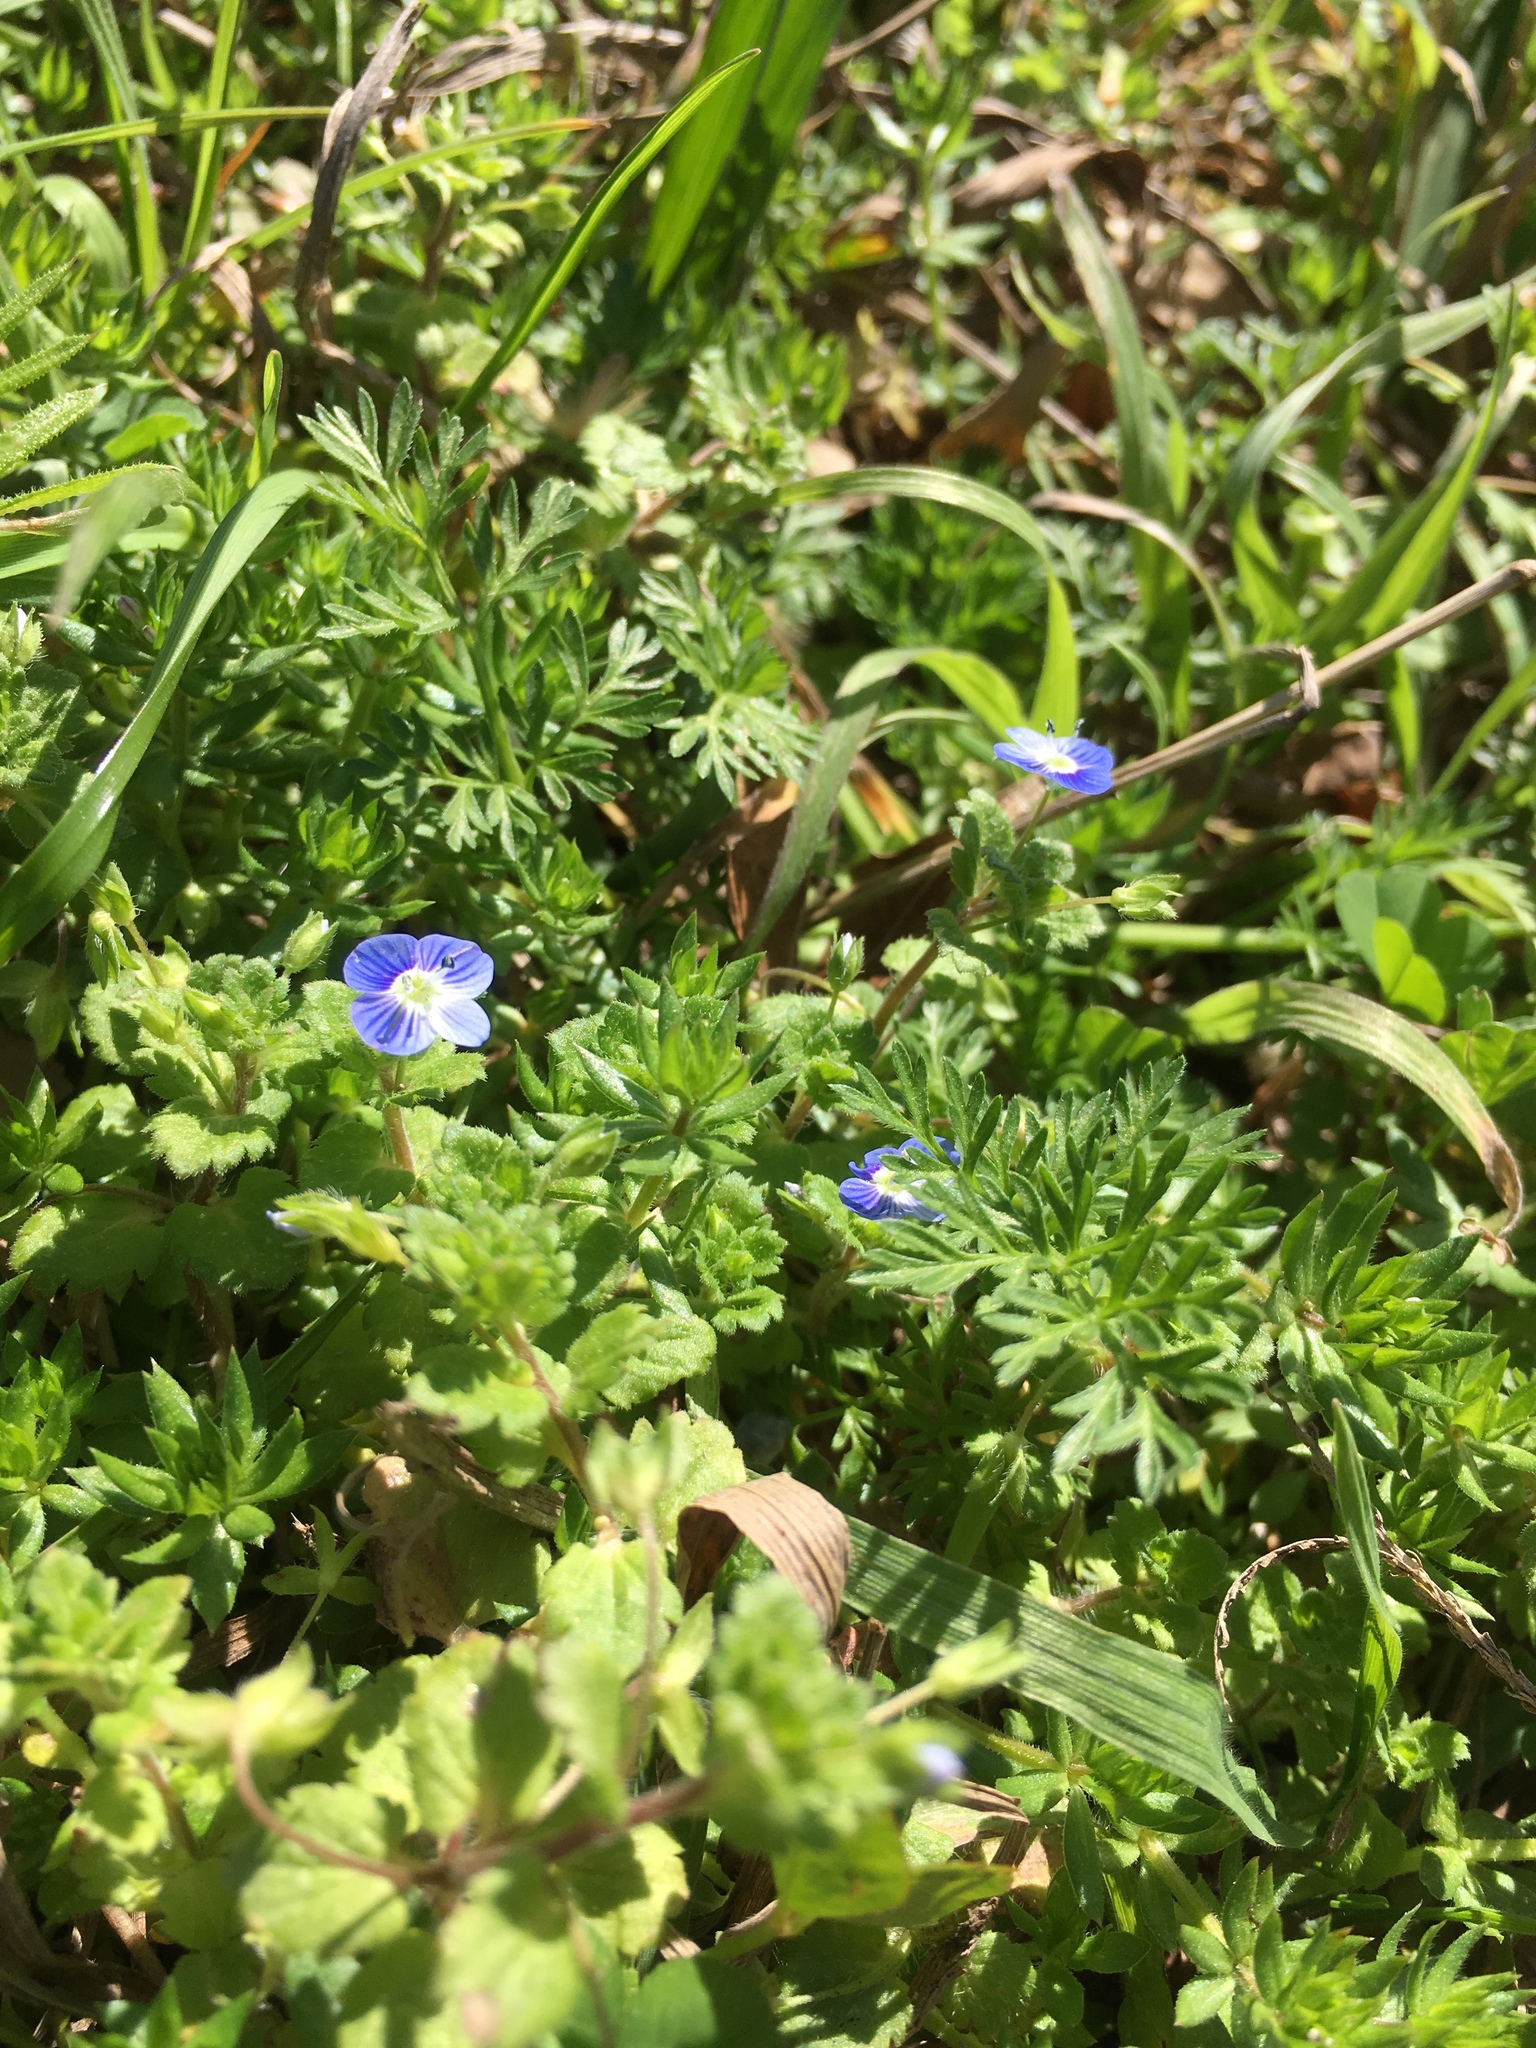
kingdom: Plantae
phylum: Tracheophyta
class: Magnoliopsida
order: Lamiales
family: Plantaginaceae
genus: Veronica
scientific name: Veronica persica
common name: Common field-speedwell
